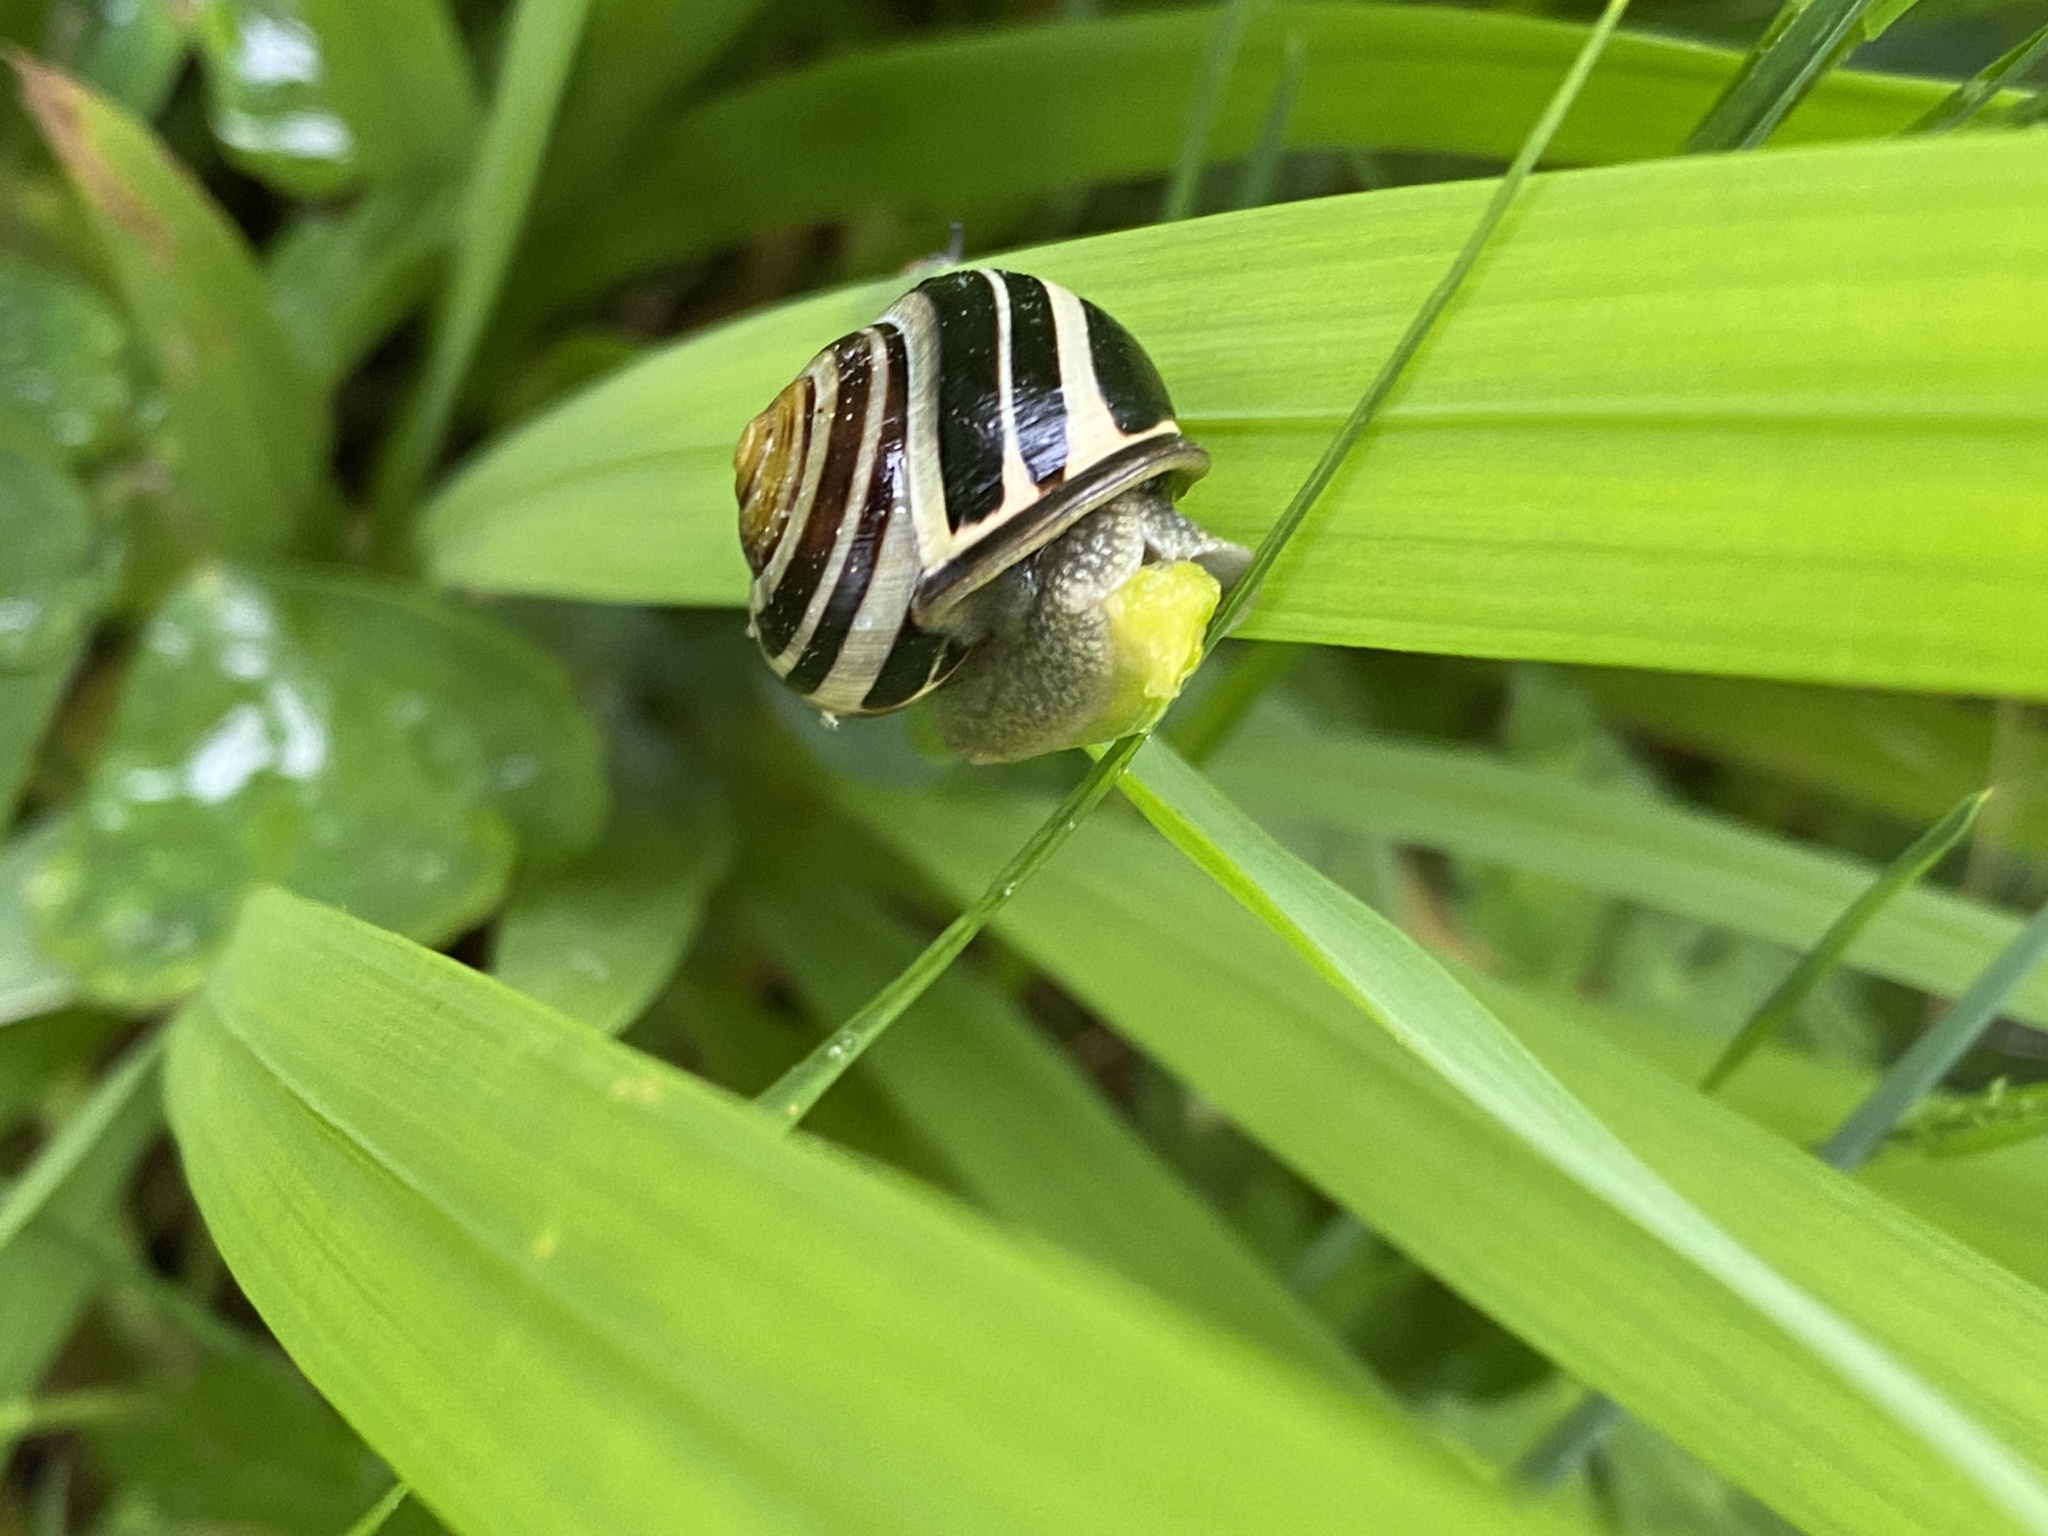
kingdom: Animalia
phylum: Mollusca
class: Gastropoda
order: Stylommatophora
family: Helicidae
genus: Cepaea
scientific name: Cepaea nemoralis
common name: Grovesnail
